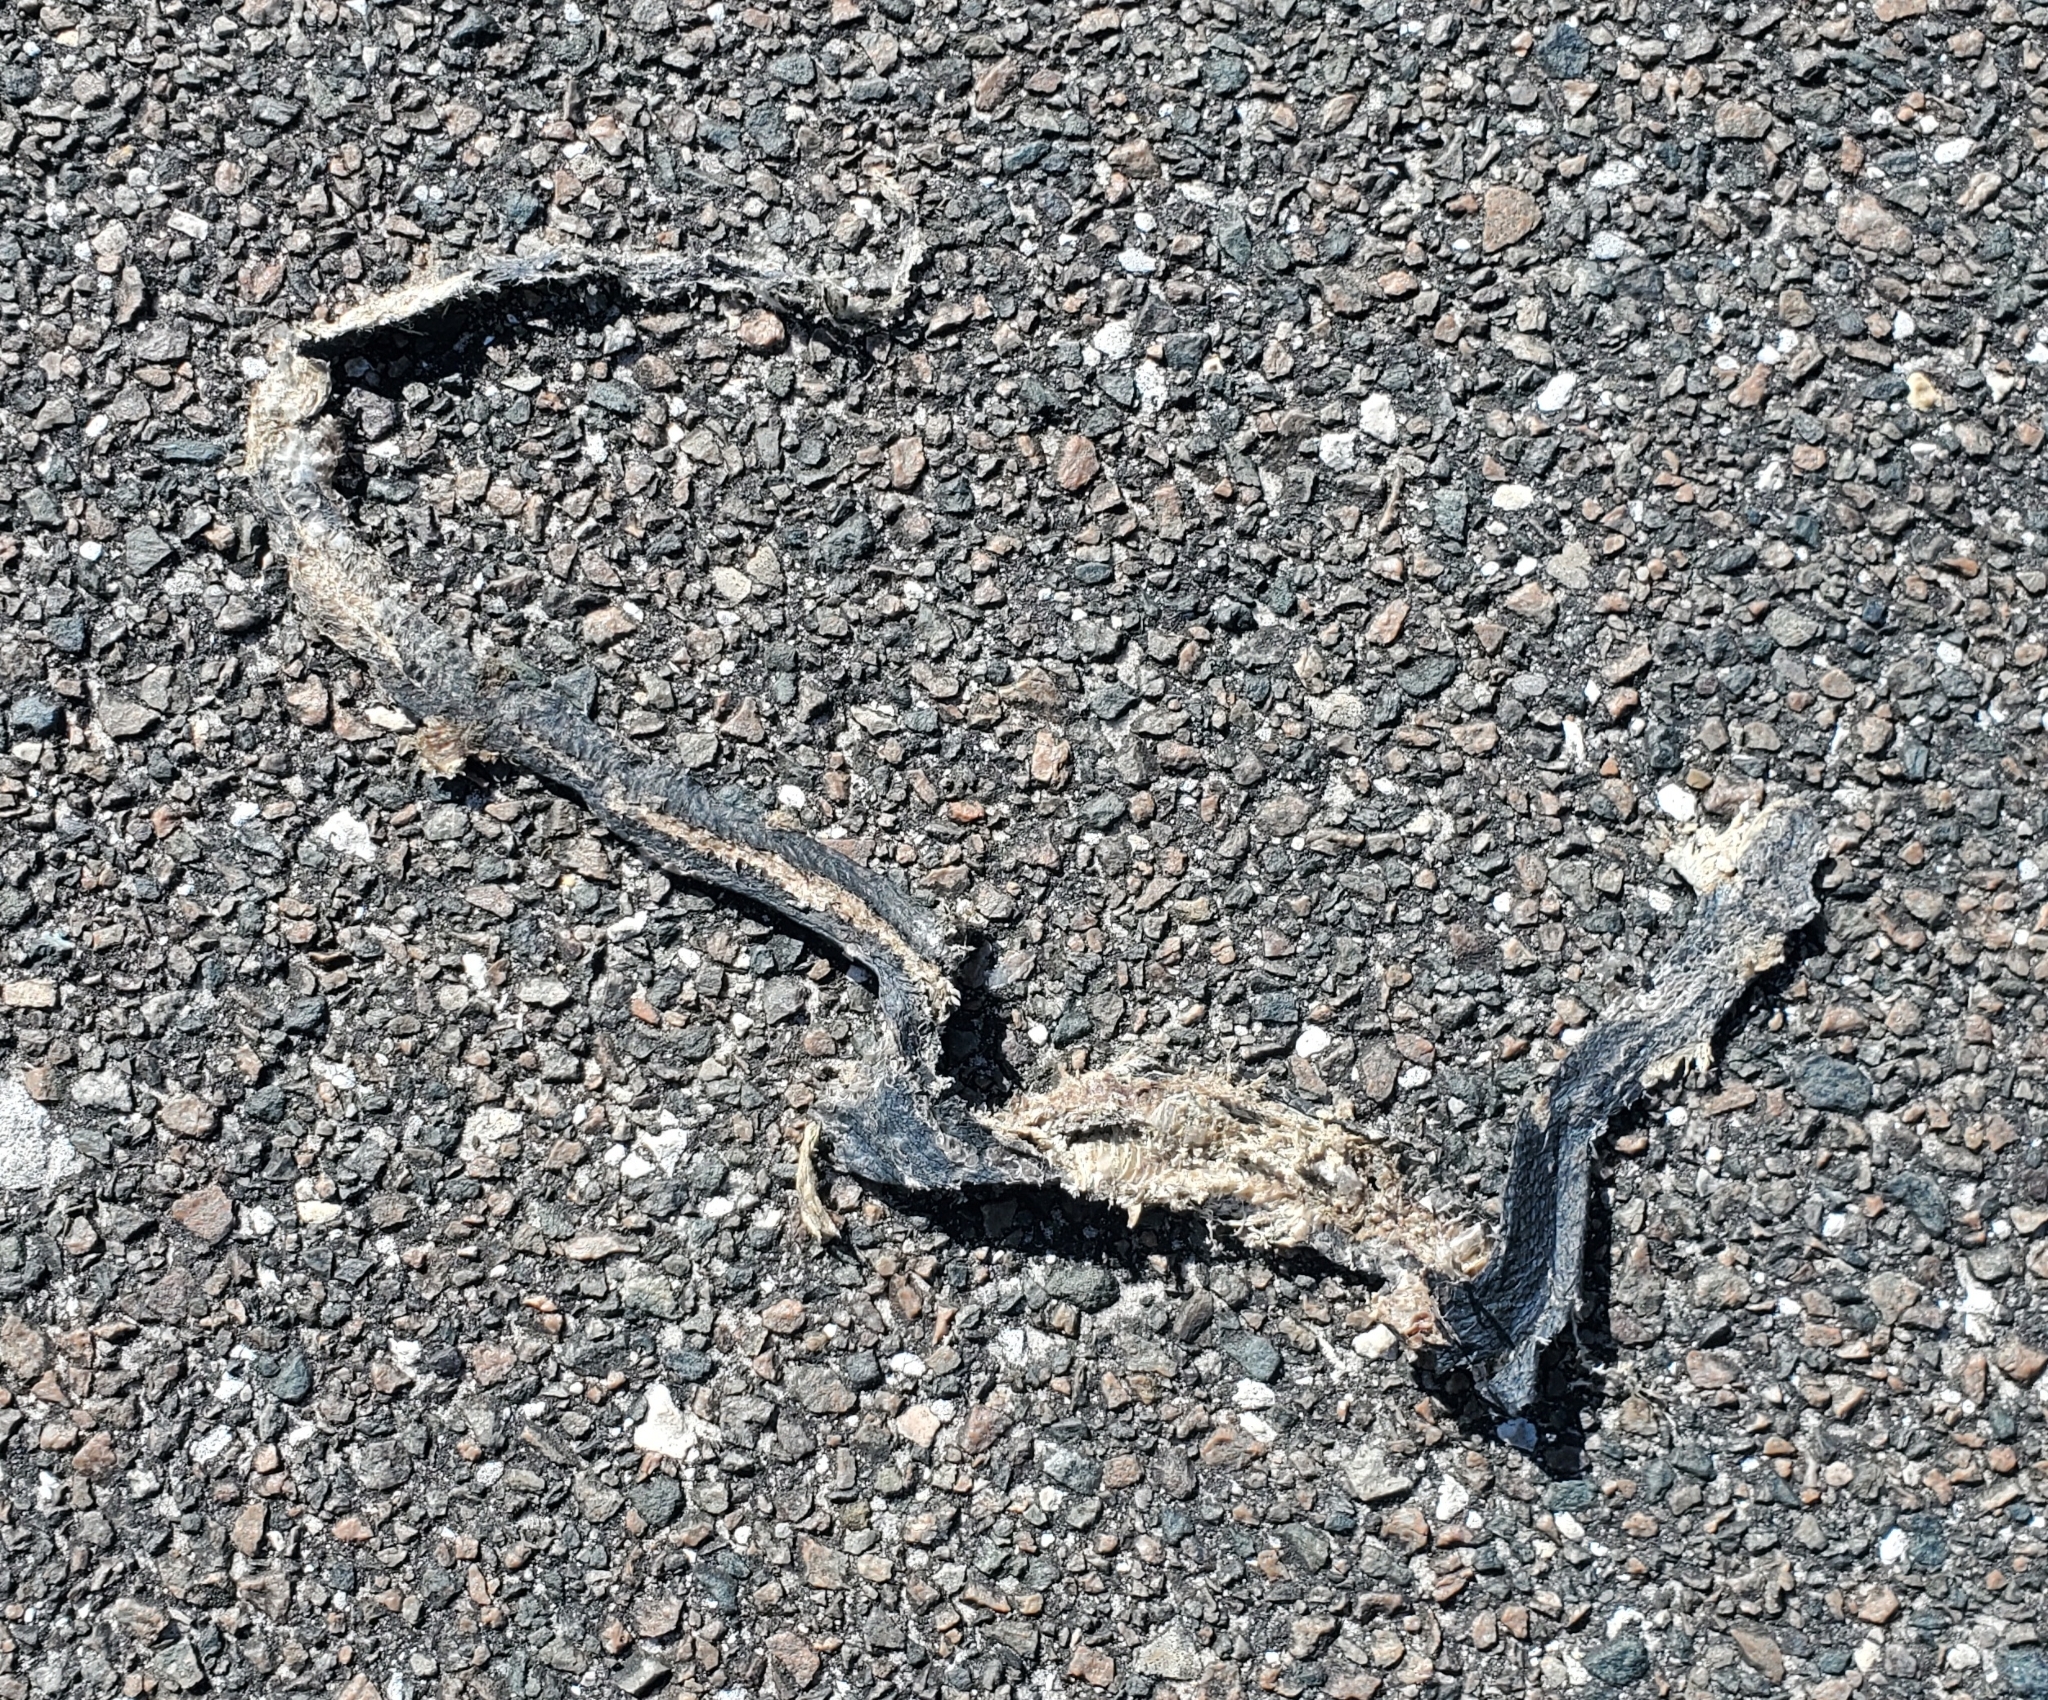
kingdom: Animalia
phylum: Chordata
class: Squamata
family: Colubridae
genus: Coluber
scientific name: Coluber constrictor
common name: Eastern racer
